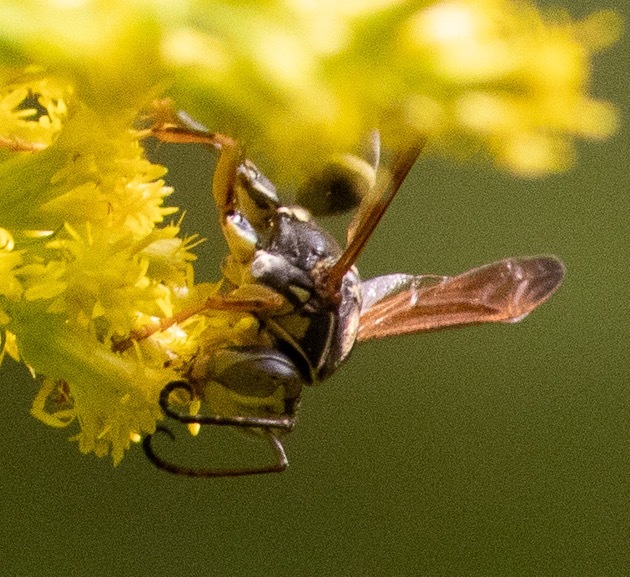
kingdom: Animalia
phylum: Arthropoda
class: Insecta
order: Hymenoptera
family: Eumenidae
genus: Polistes
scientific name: Polistes fuscatus
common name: Dark paper wasp
